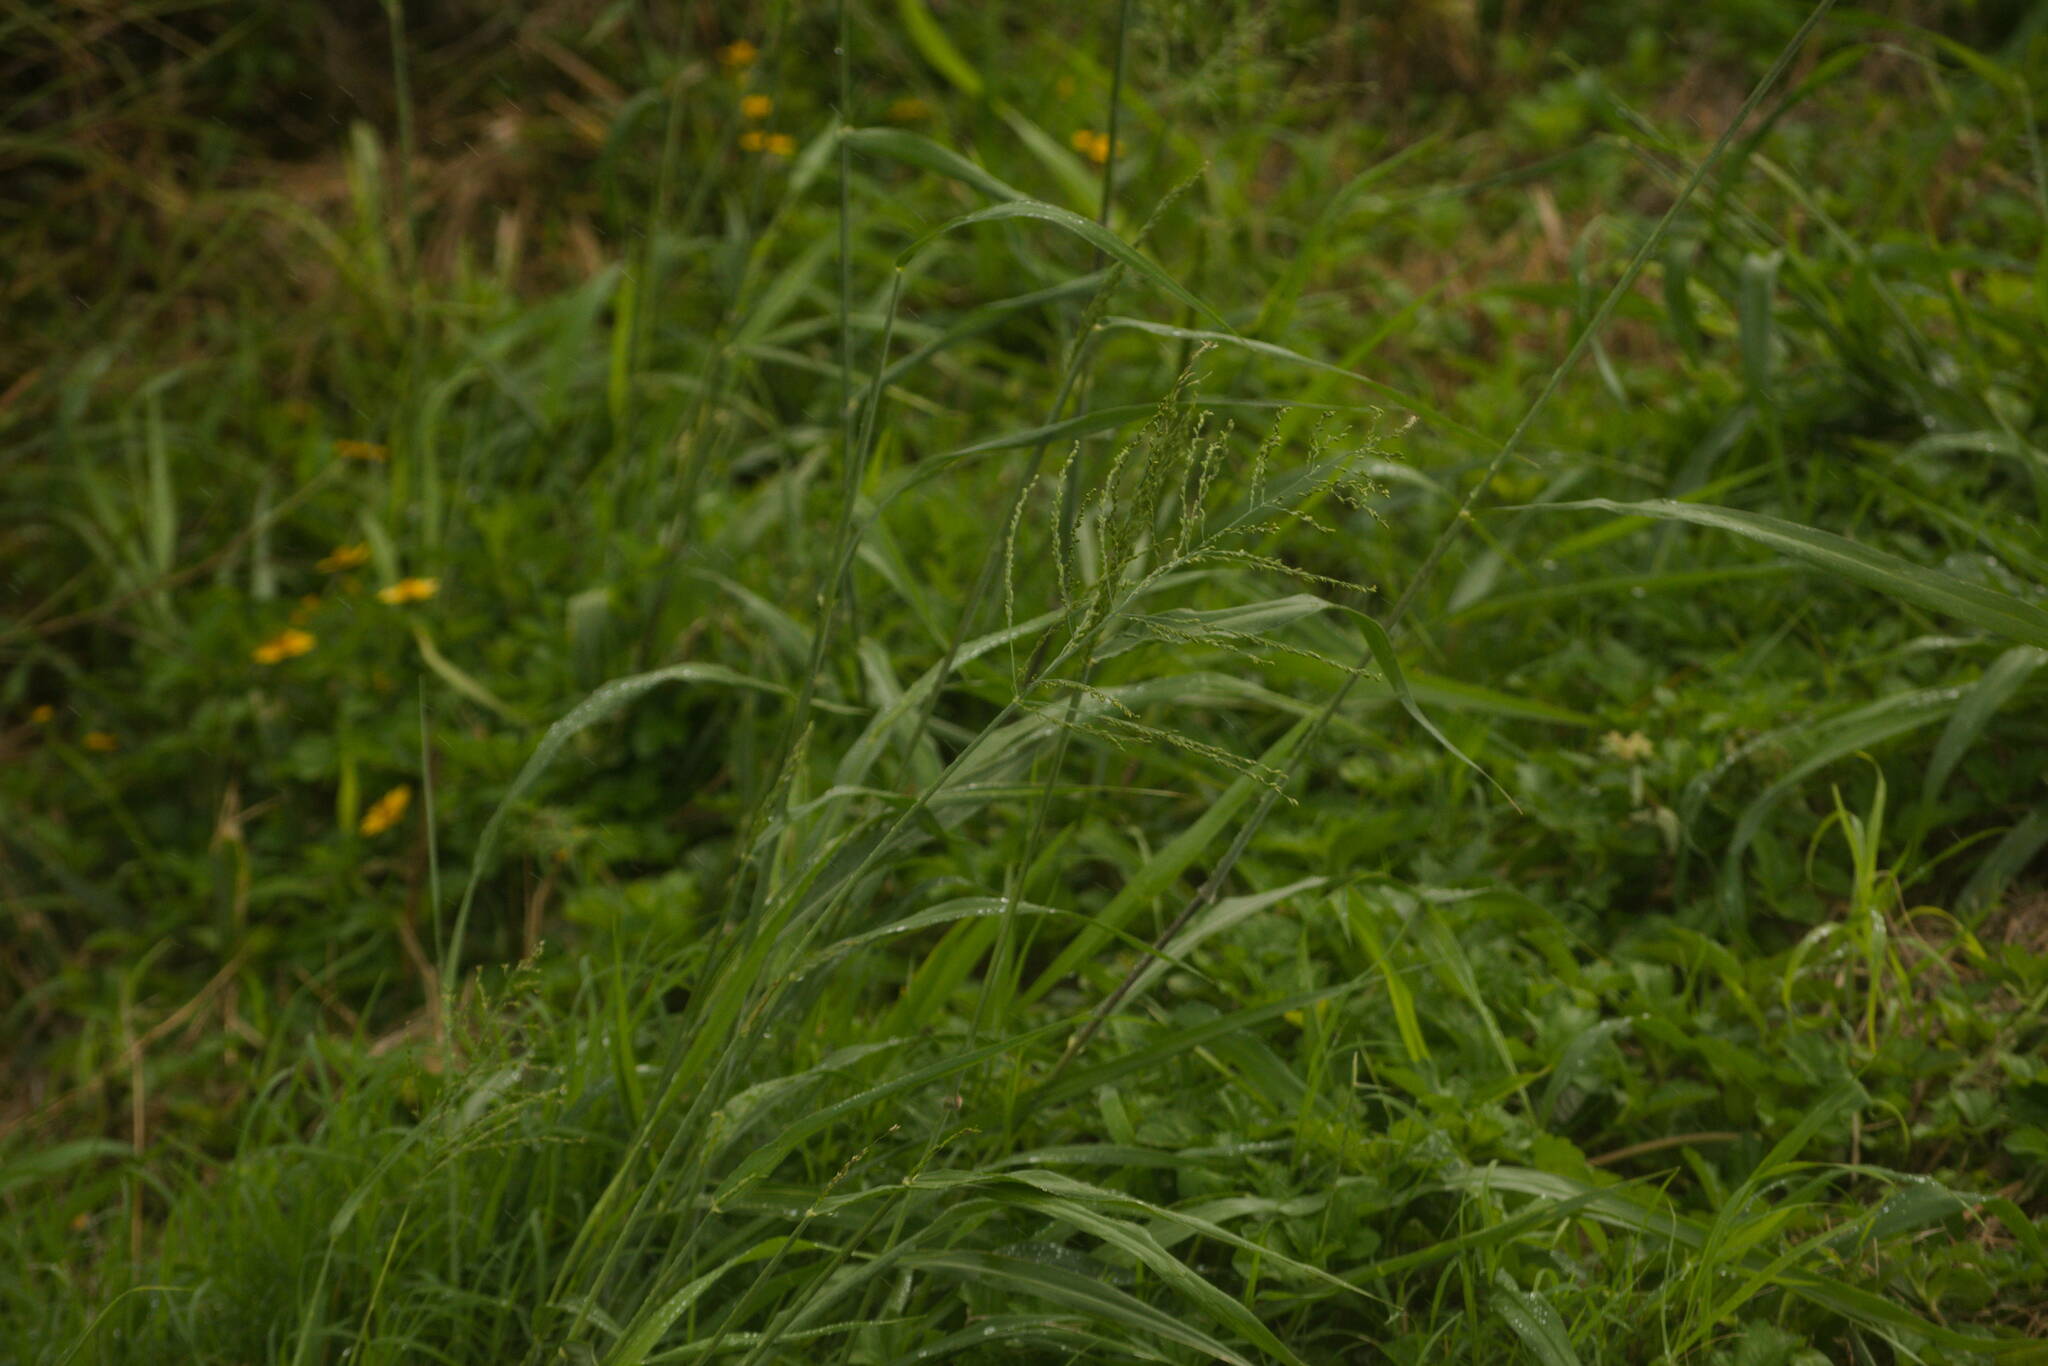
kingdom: Plantae
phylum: Tracheophyta
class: Liliopsida
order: Poales
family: Poaceae
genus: Megathyrsus
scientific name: Megathyrsus maximus
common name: Guineagrass
